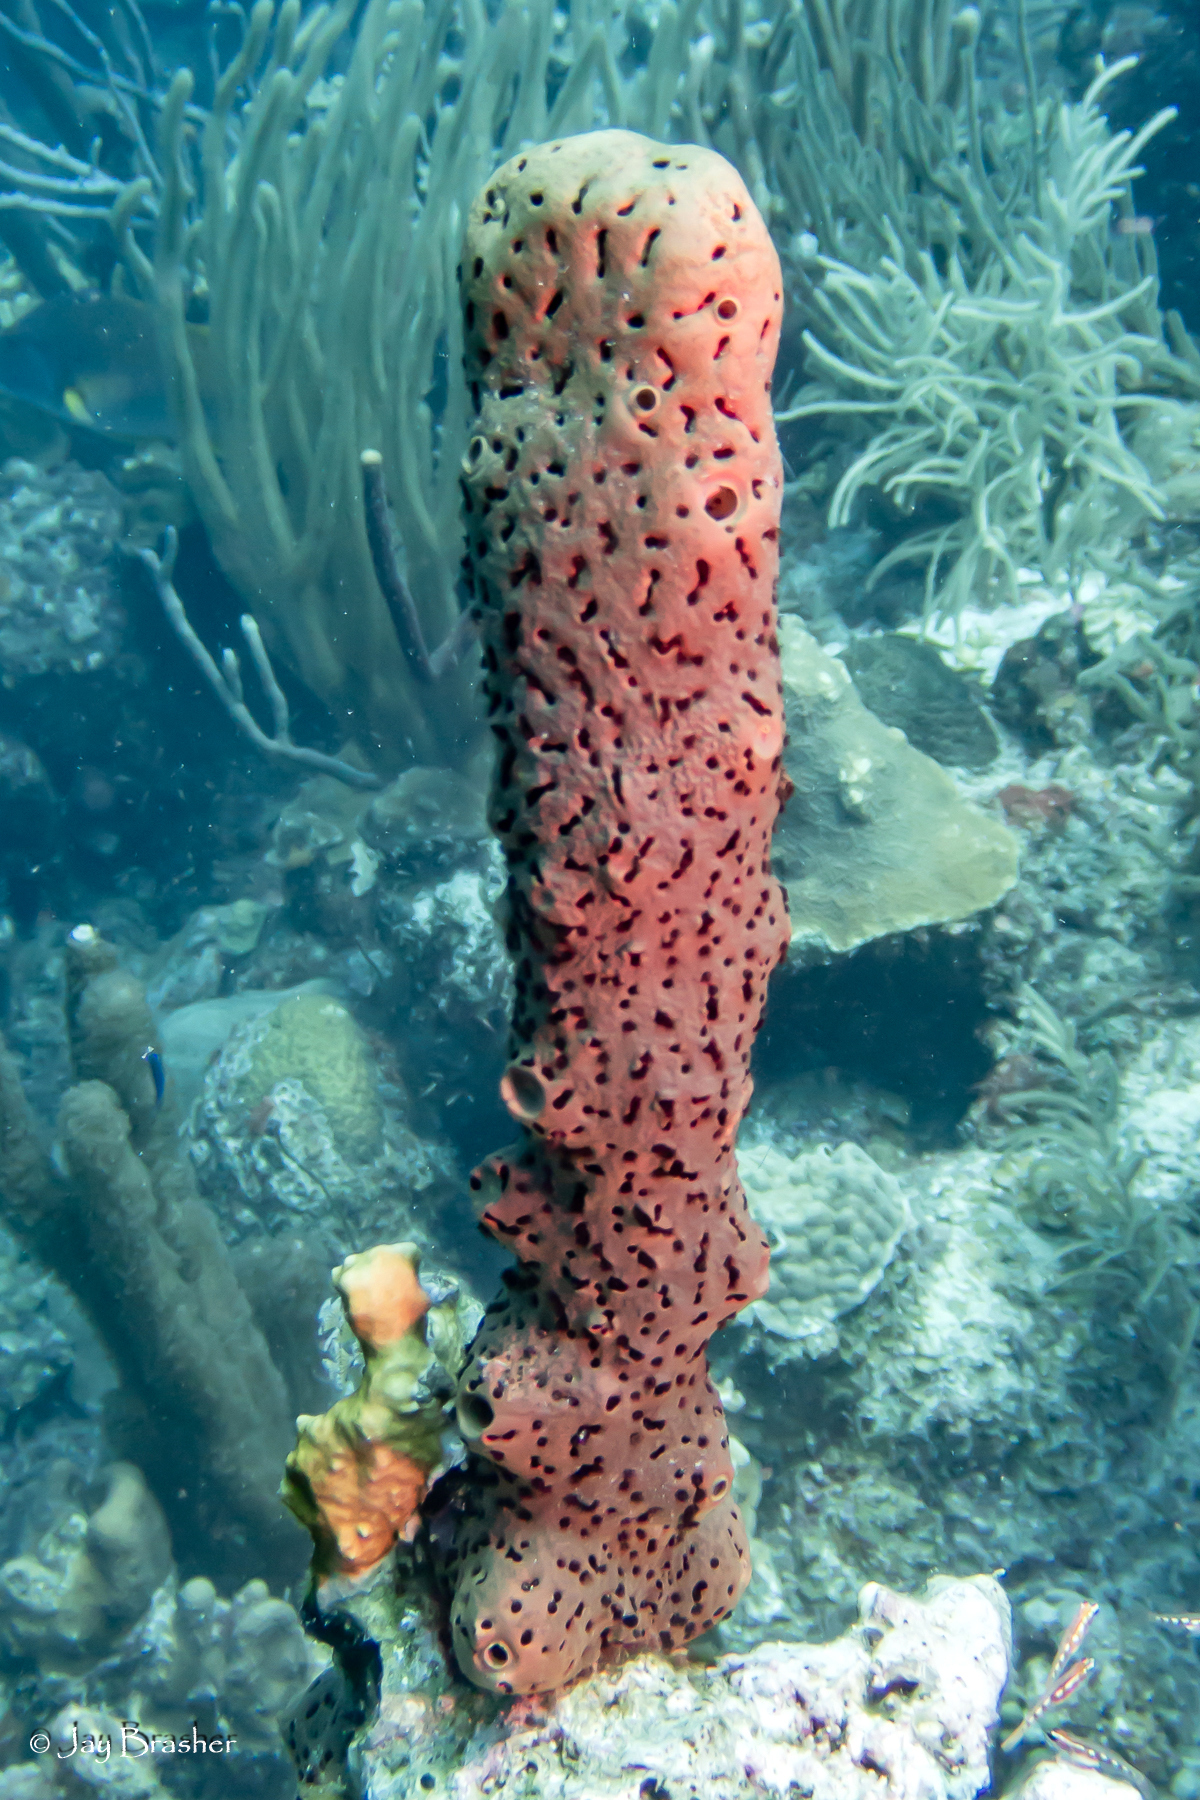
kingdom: Animalia
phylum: Porifera
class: Demospongiae
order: Agelasida
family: Agelasidae
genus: Agelas
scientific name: Agelas conifera
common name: Brown tube sponge
